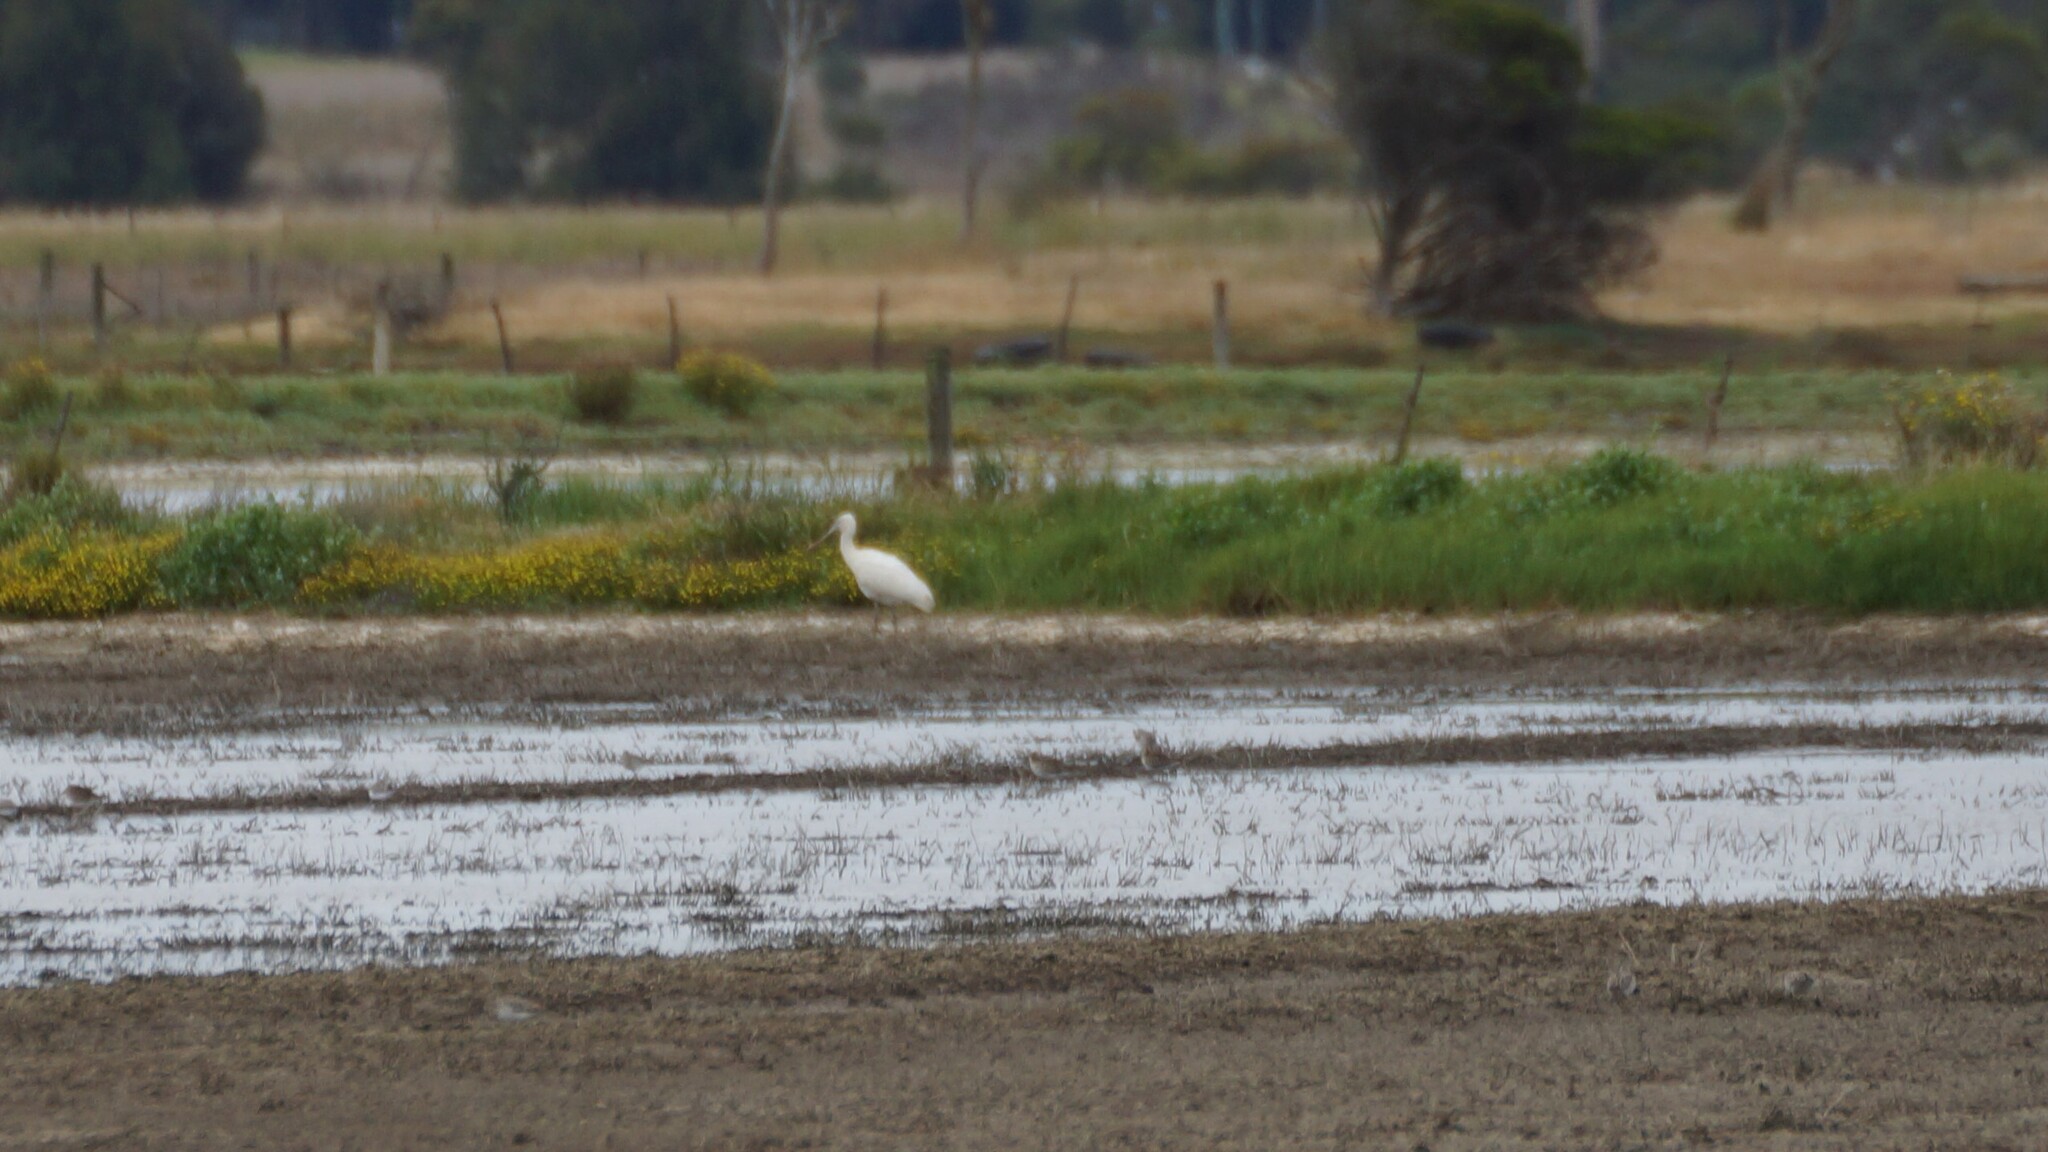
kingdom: Animalia
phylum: Chordata
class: Aves
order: Pelecaniformes
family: Threskiornithidae
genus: Platalea
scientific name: Platalea flavipes
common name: Yellow-billed spoonbill
